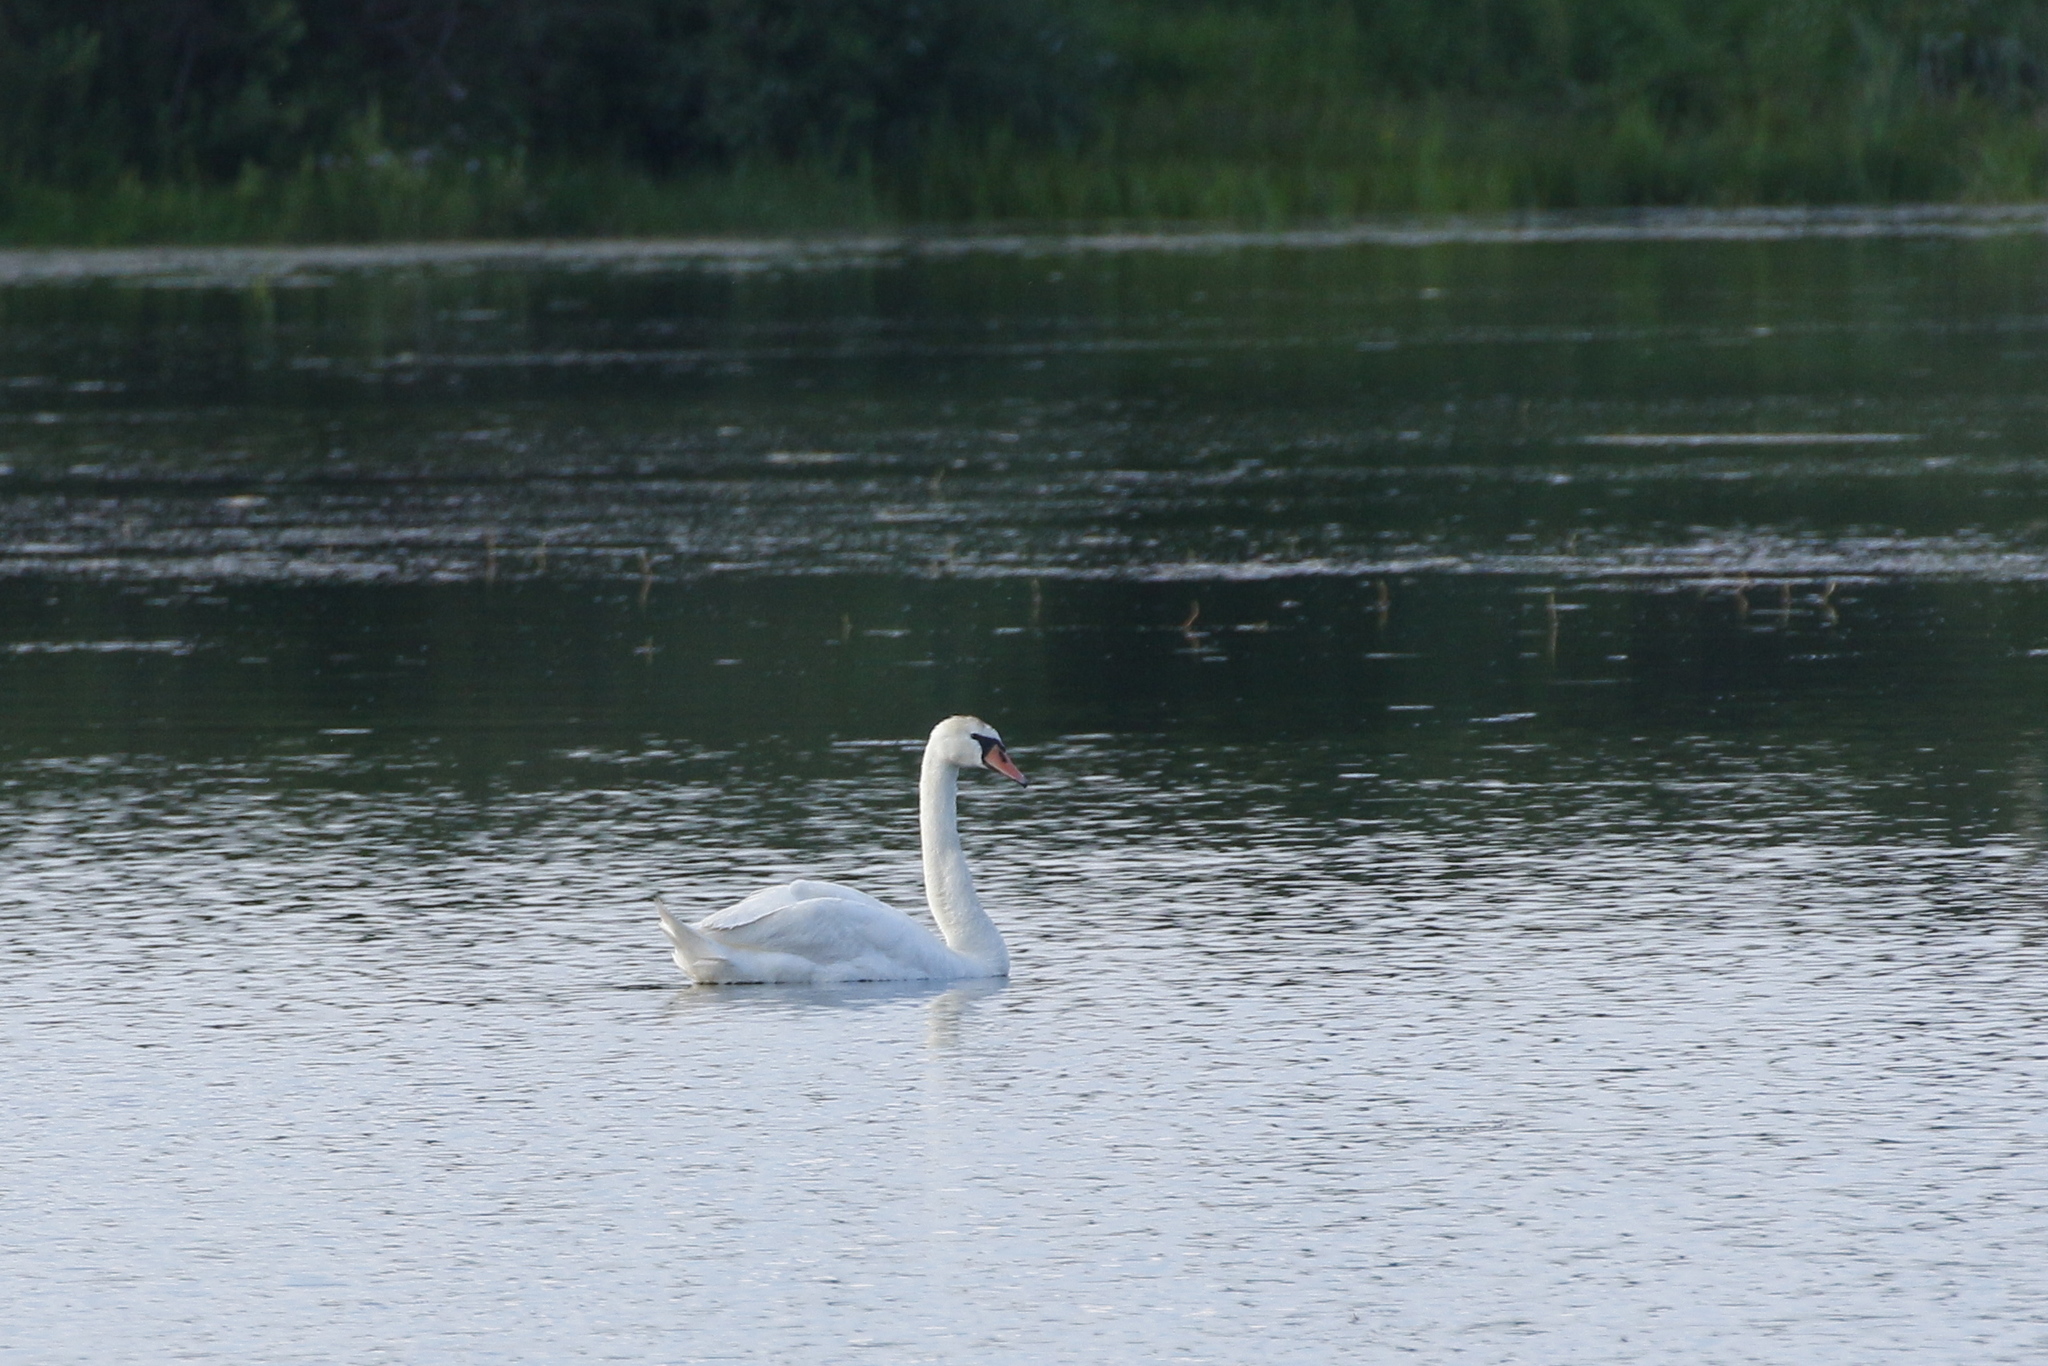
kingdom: Animalia
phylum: Chordata
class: Aves
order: Anseriformes
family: Anatidae
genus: Cygnus
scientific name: Cygnus olor
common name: Mute swan
